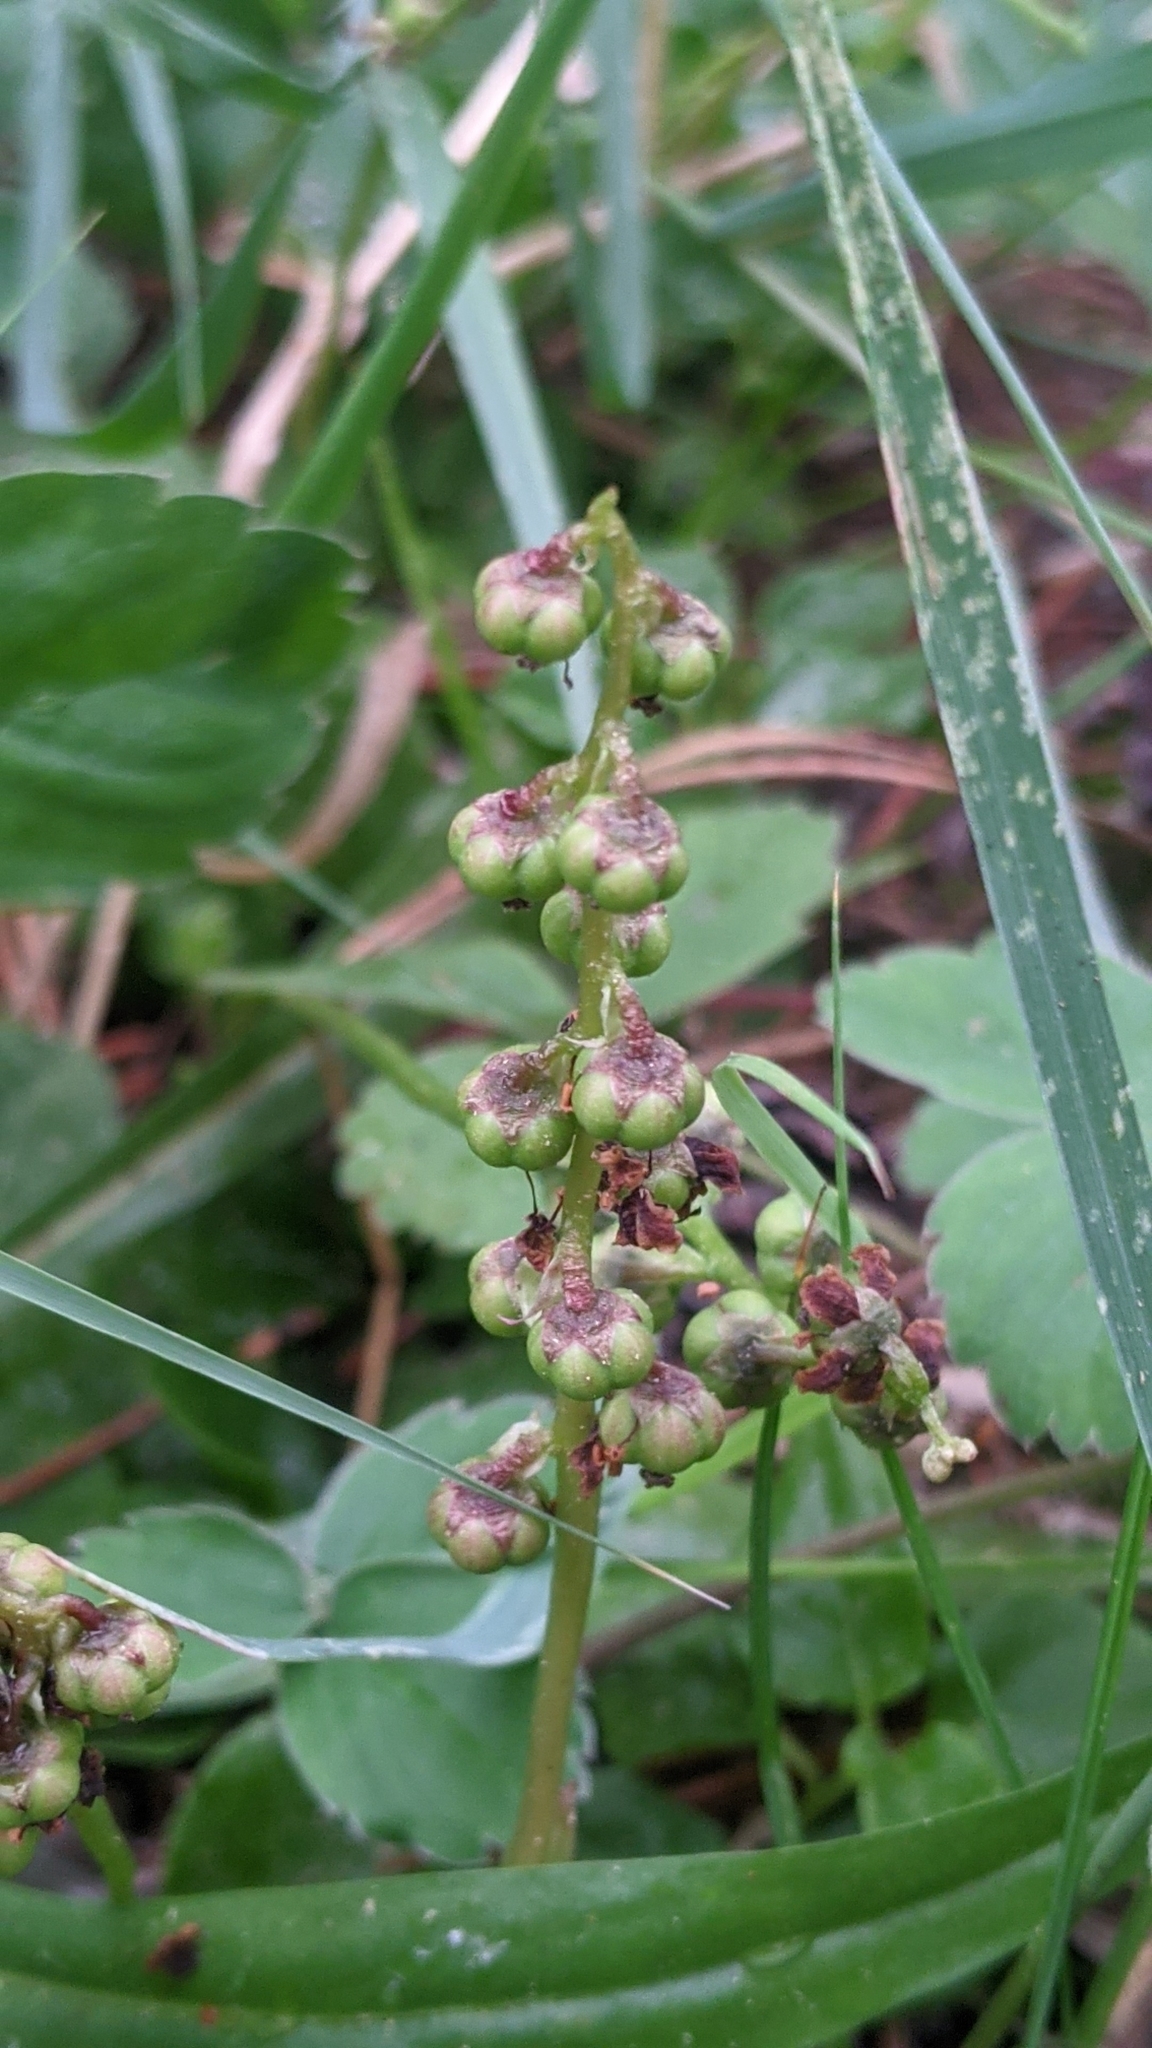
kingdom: Plantae
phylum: Tracheophyta
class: Magnoliopsida
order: Ericales
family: Ericaceae
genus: Pyrola
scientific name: Pyrola minor
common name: Common wintergreen
